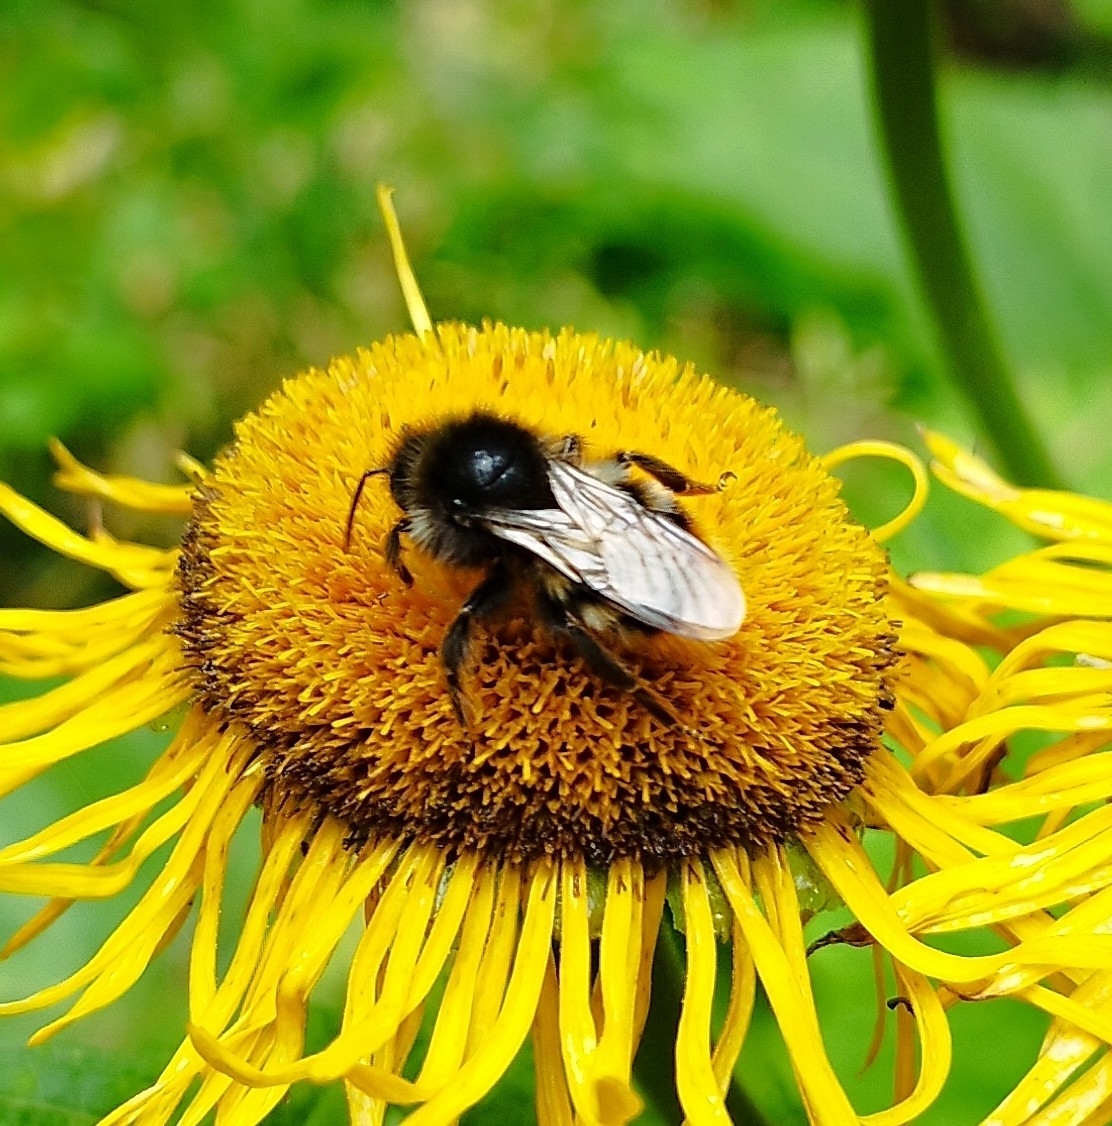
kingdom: Animalia
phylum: Arthropoda
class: Insecta
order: Hymenoptera
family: Apidae
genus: Bombus
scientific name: Bombus rupestris
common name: Hill cuckoo-bee
